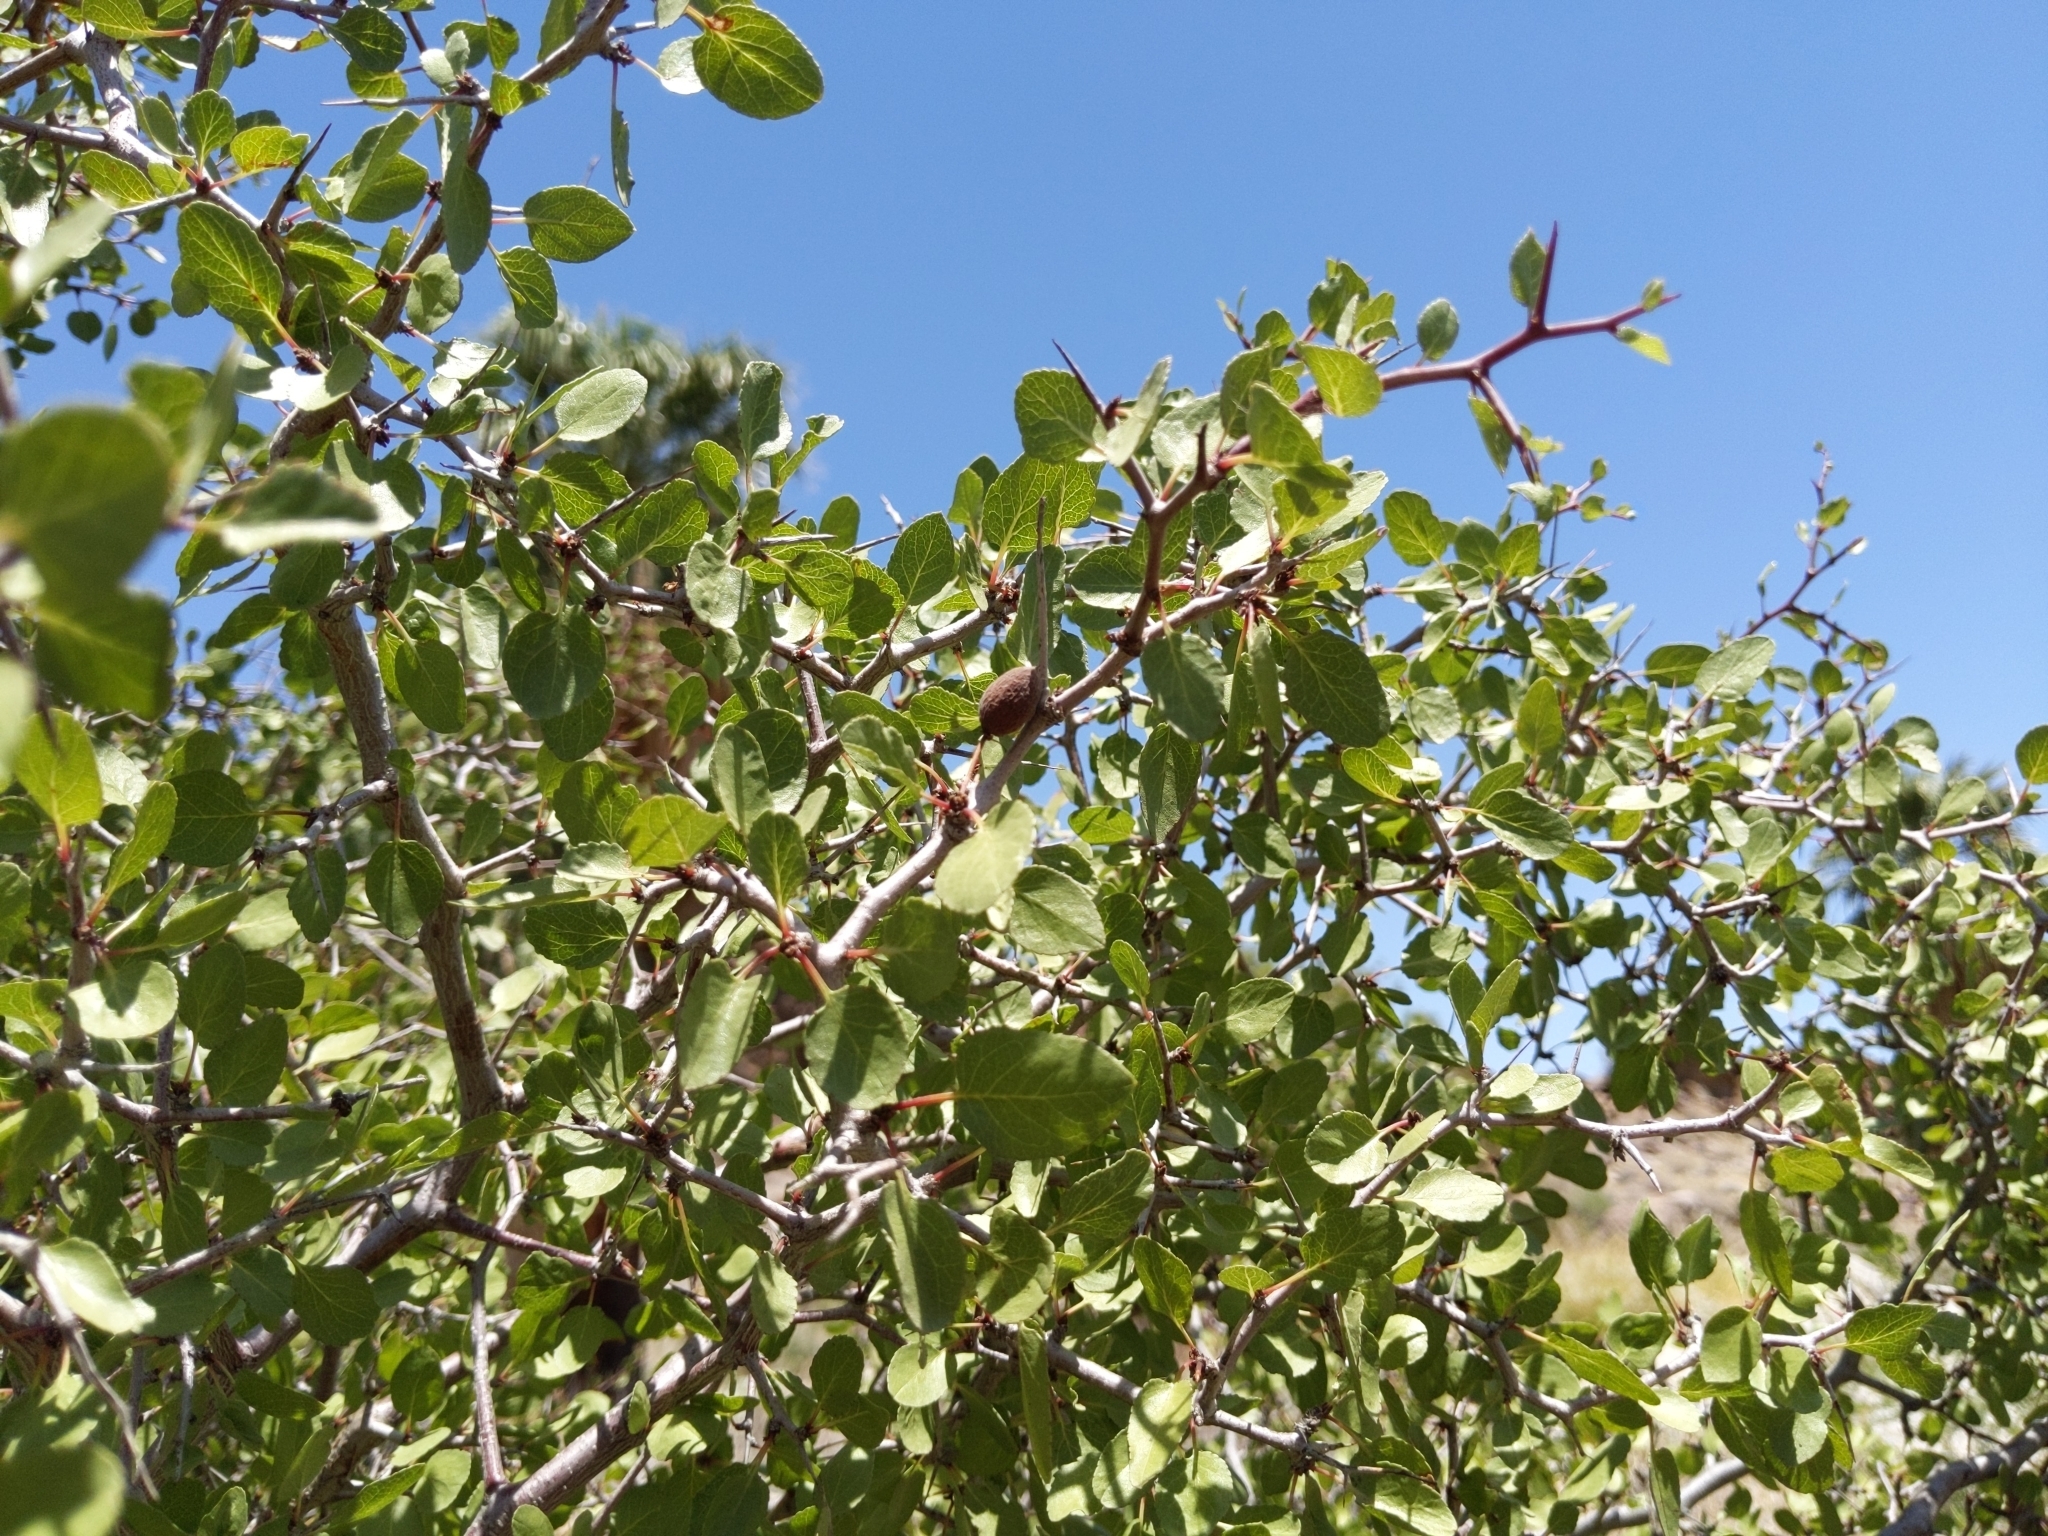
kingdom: Plantae
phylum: Tracheophyta
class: Magnoliopsida
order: Rosales
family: Rosaceae
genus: Prunus
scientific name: Prunus fremontii
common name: Desert apricot
